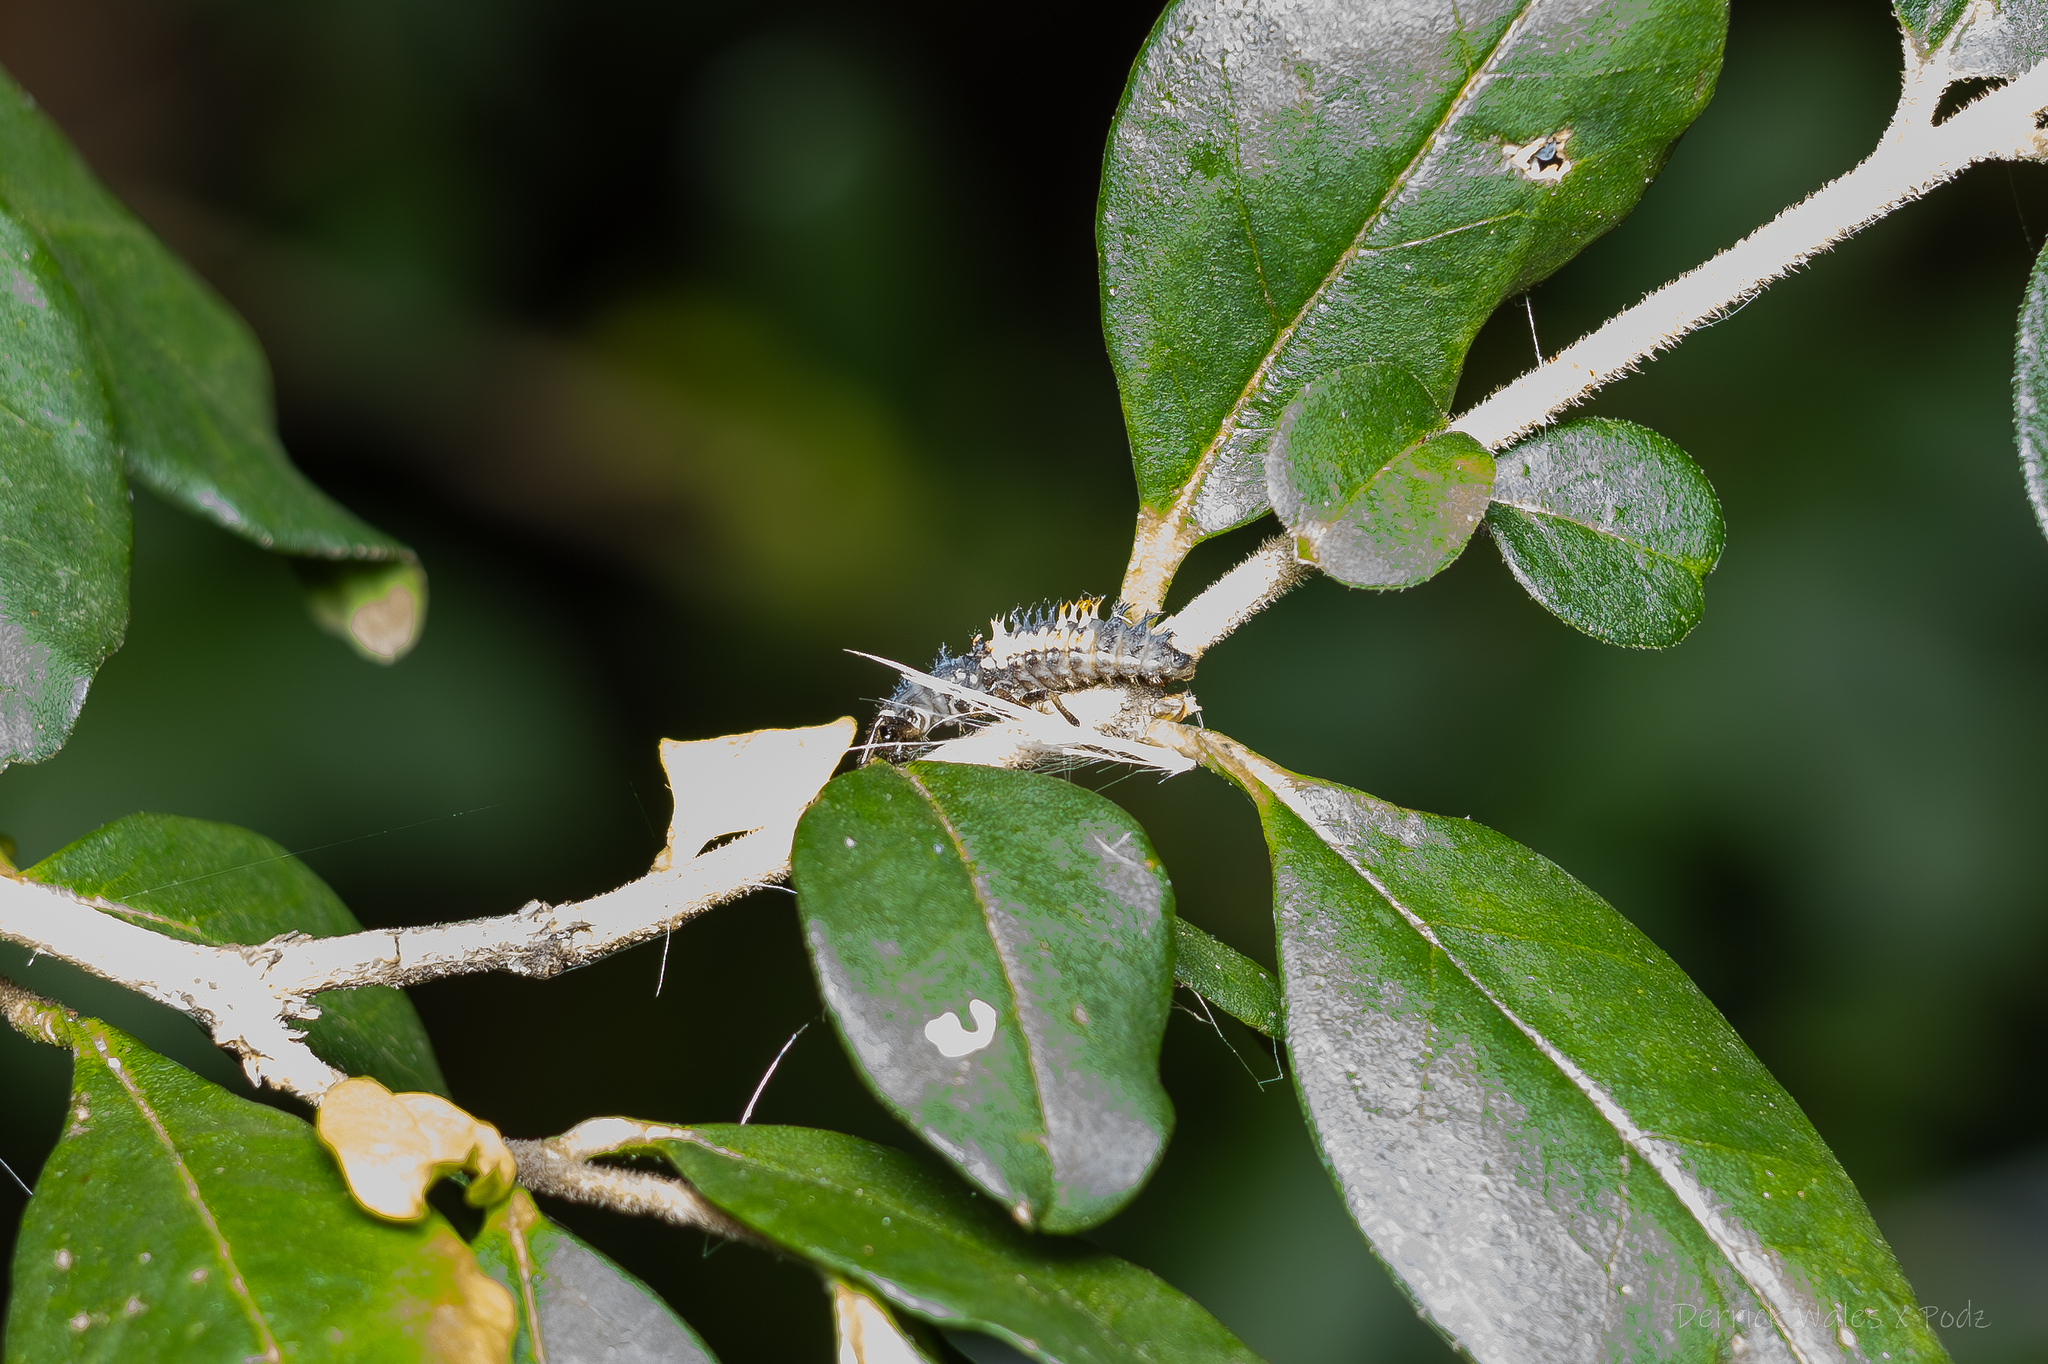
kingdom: Animalia
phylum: Arthropoda
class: Insecta
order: Coleoptera
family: Coccinellidae
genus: Harmonia
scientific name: Harmonia axyridis
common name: Harlequin ladybird
